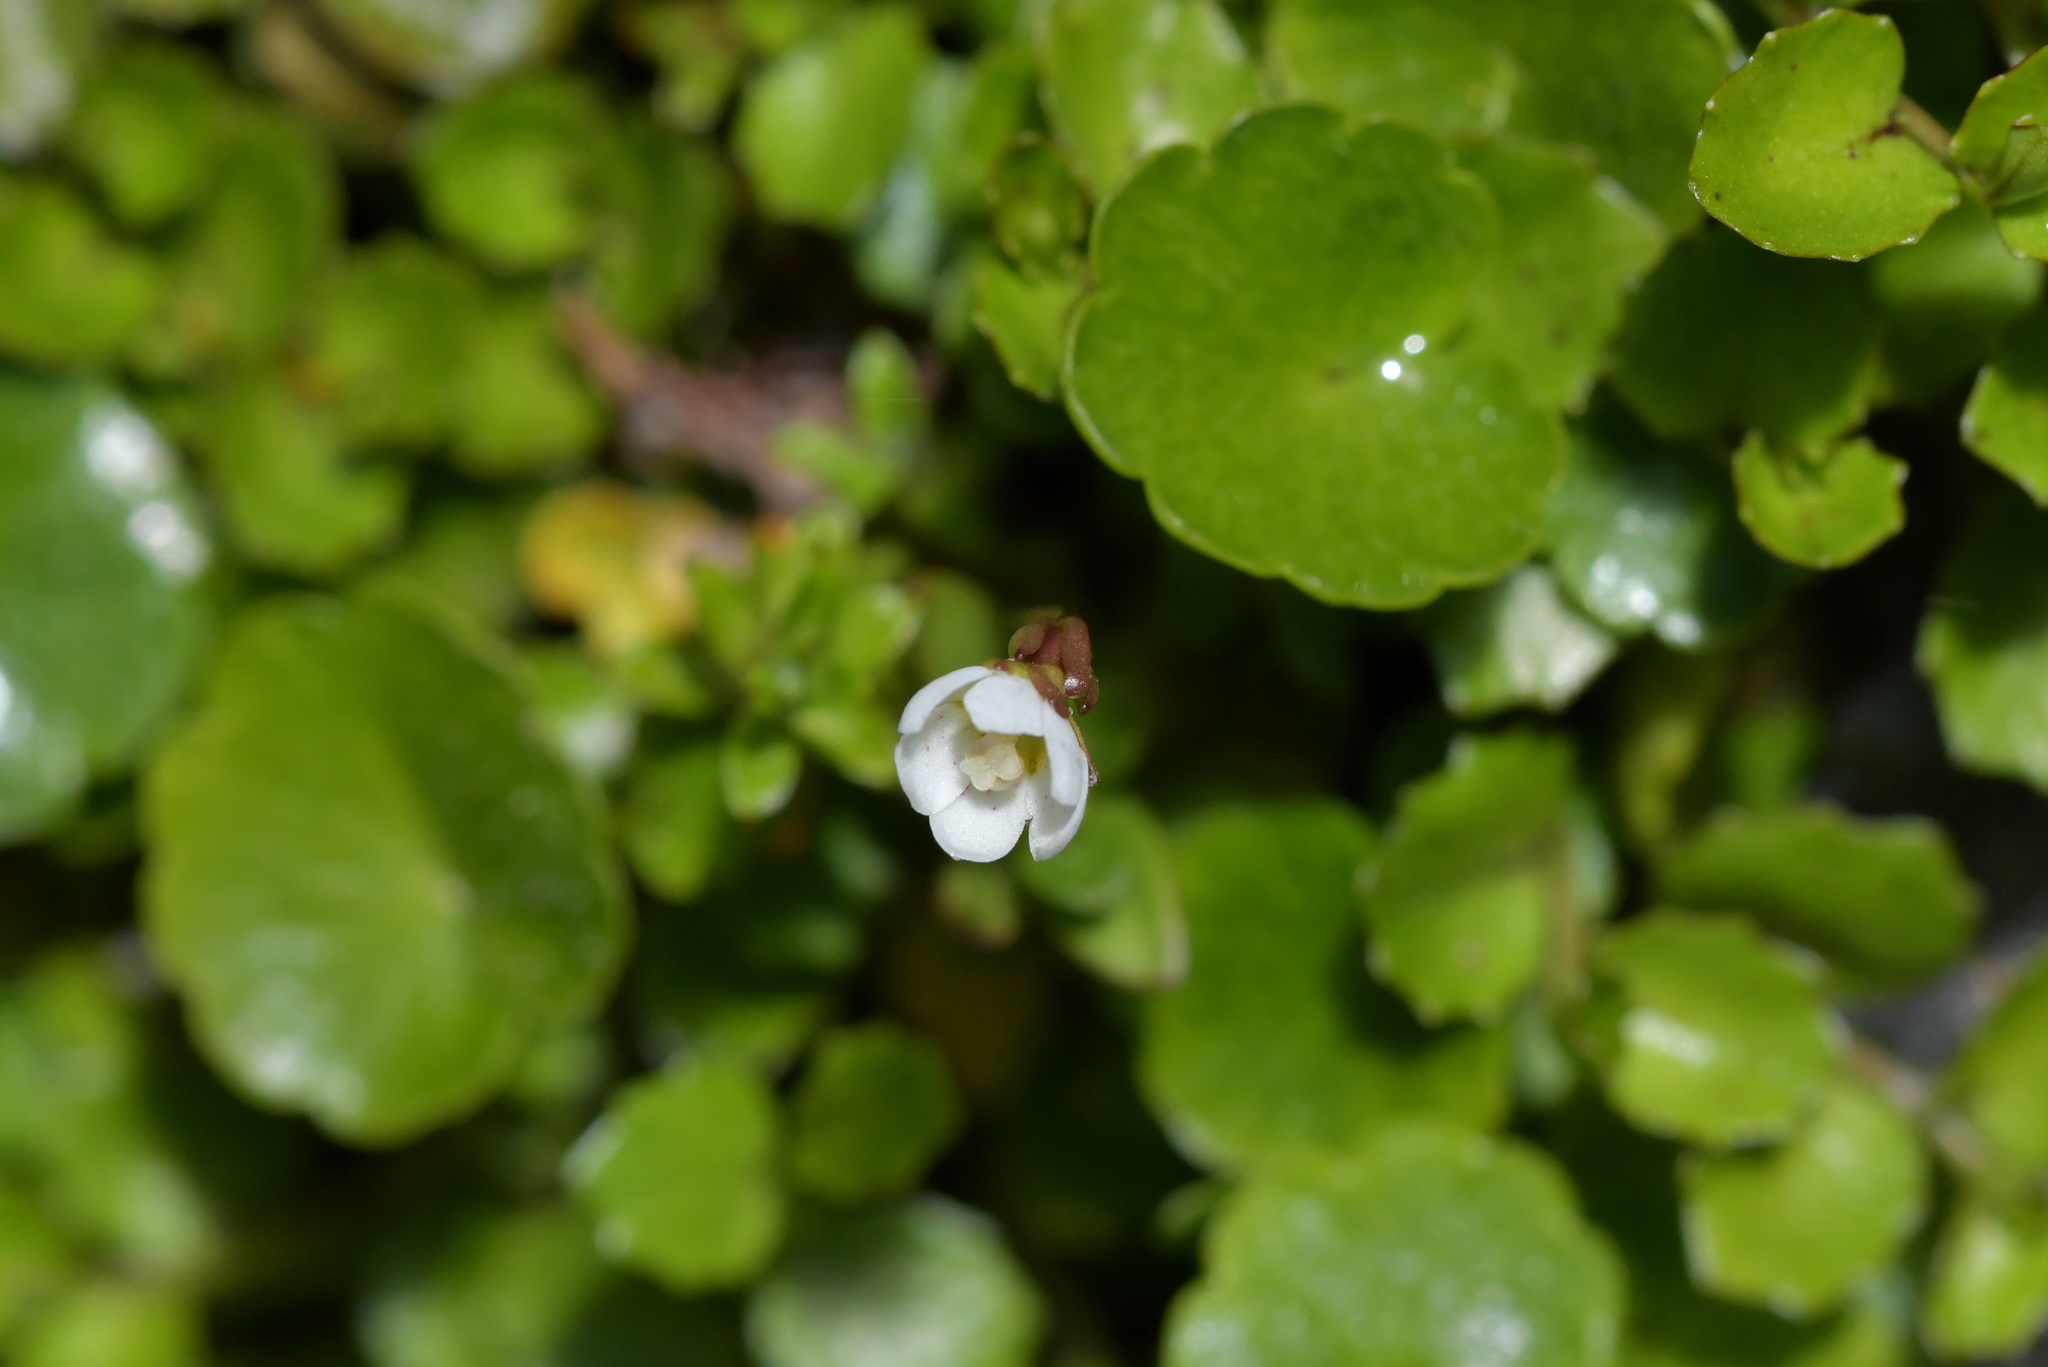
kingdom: Plantae
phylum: Tracheophyta
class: Magnoliopsida
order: Asterales
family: Stylidiaceae
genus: Forstera
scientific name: Forstera tenella
